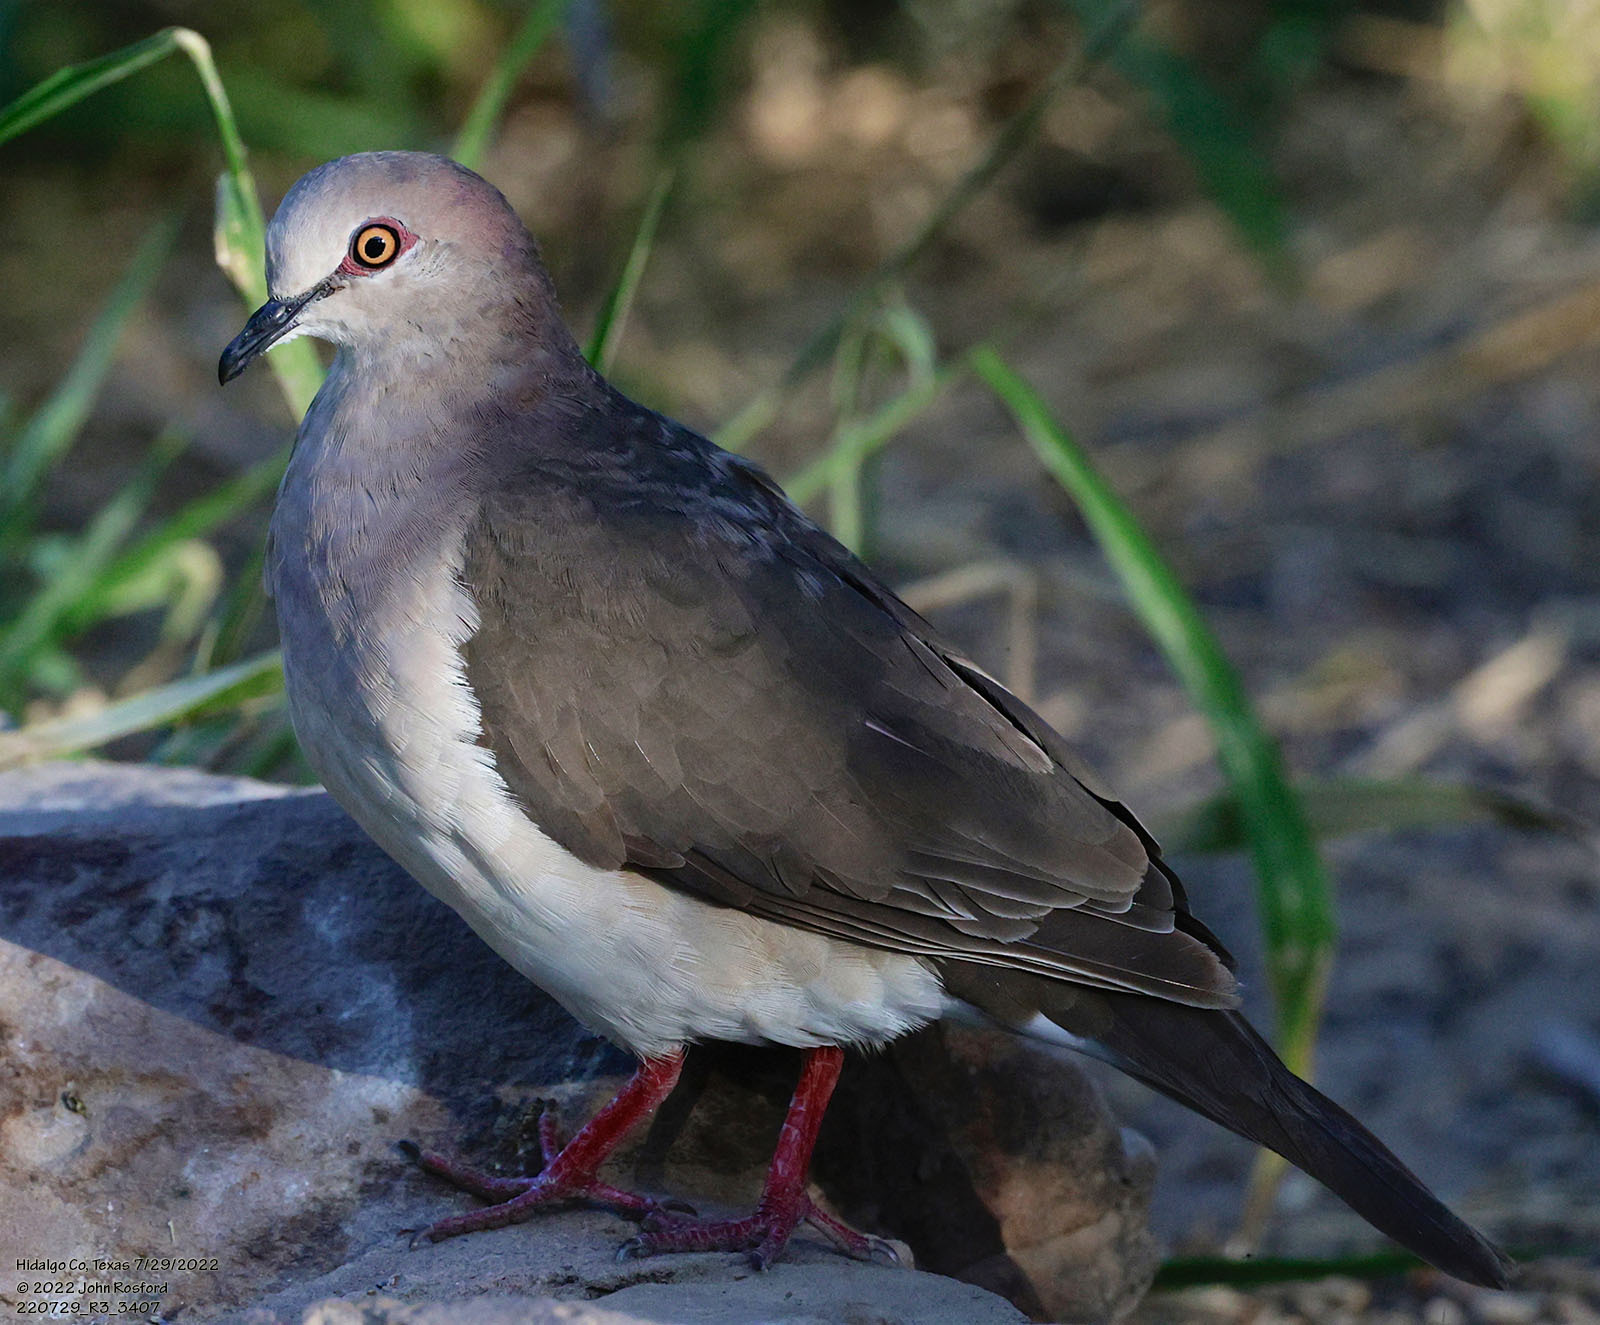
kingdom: Animalia
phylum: Chordata
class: Aves
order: Columbiformes
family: Columbidae
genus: Leptotila
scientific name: Leptotila verreauxi
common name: White-tipped dove
